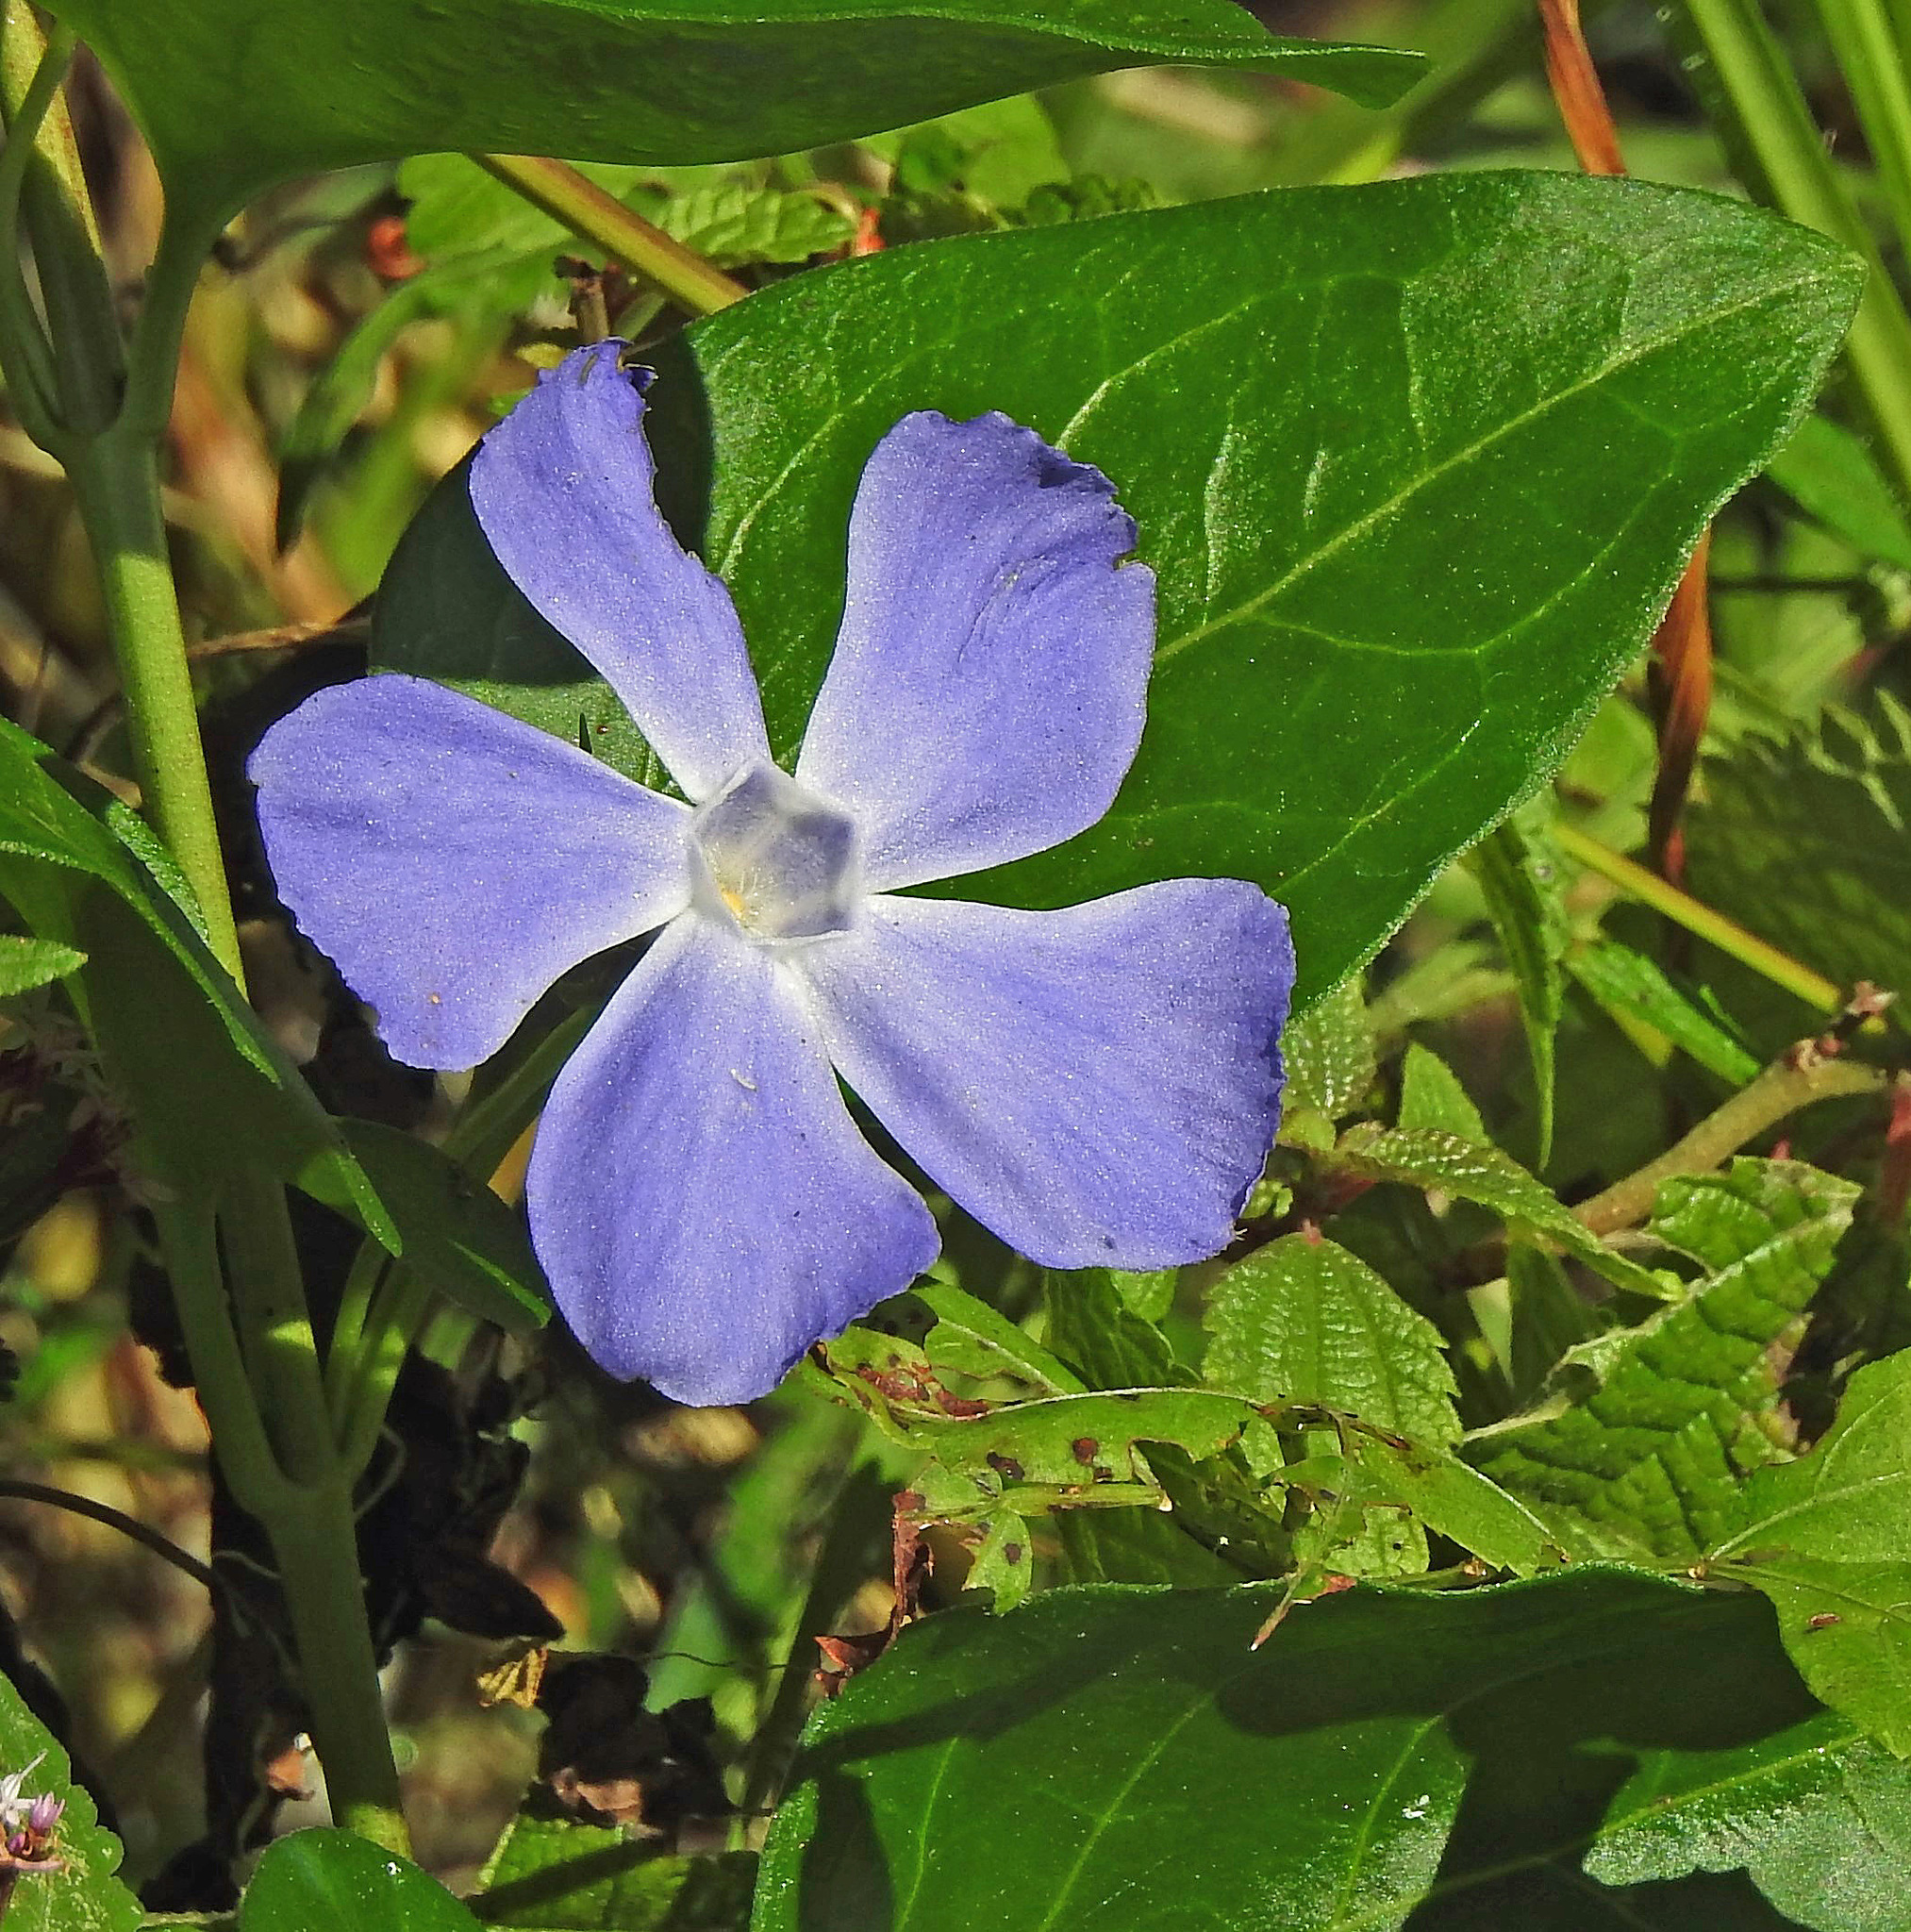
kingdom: Plantae
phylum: Tracheophyta
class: Magnoliopsida
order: Gentianales
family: Apocynaceae
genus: Vinca
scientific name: Vinca major
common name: Greater periwinkle
